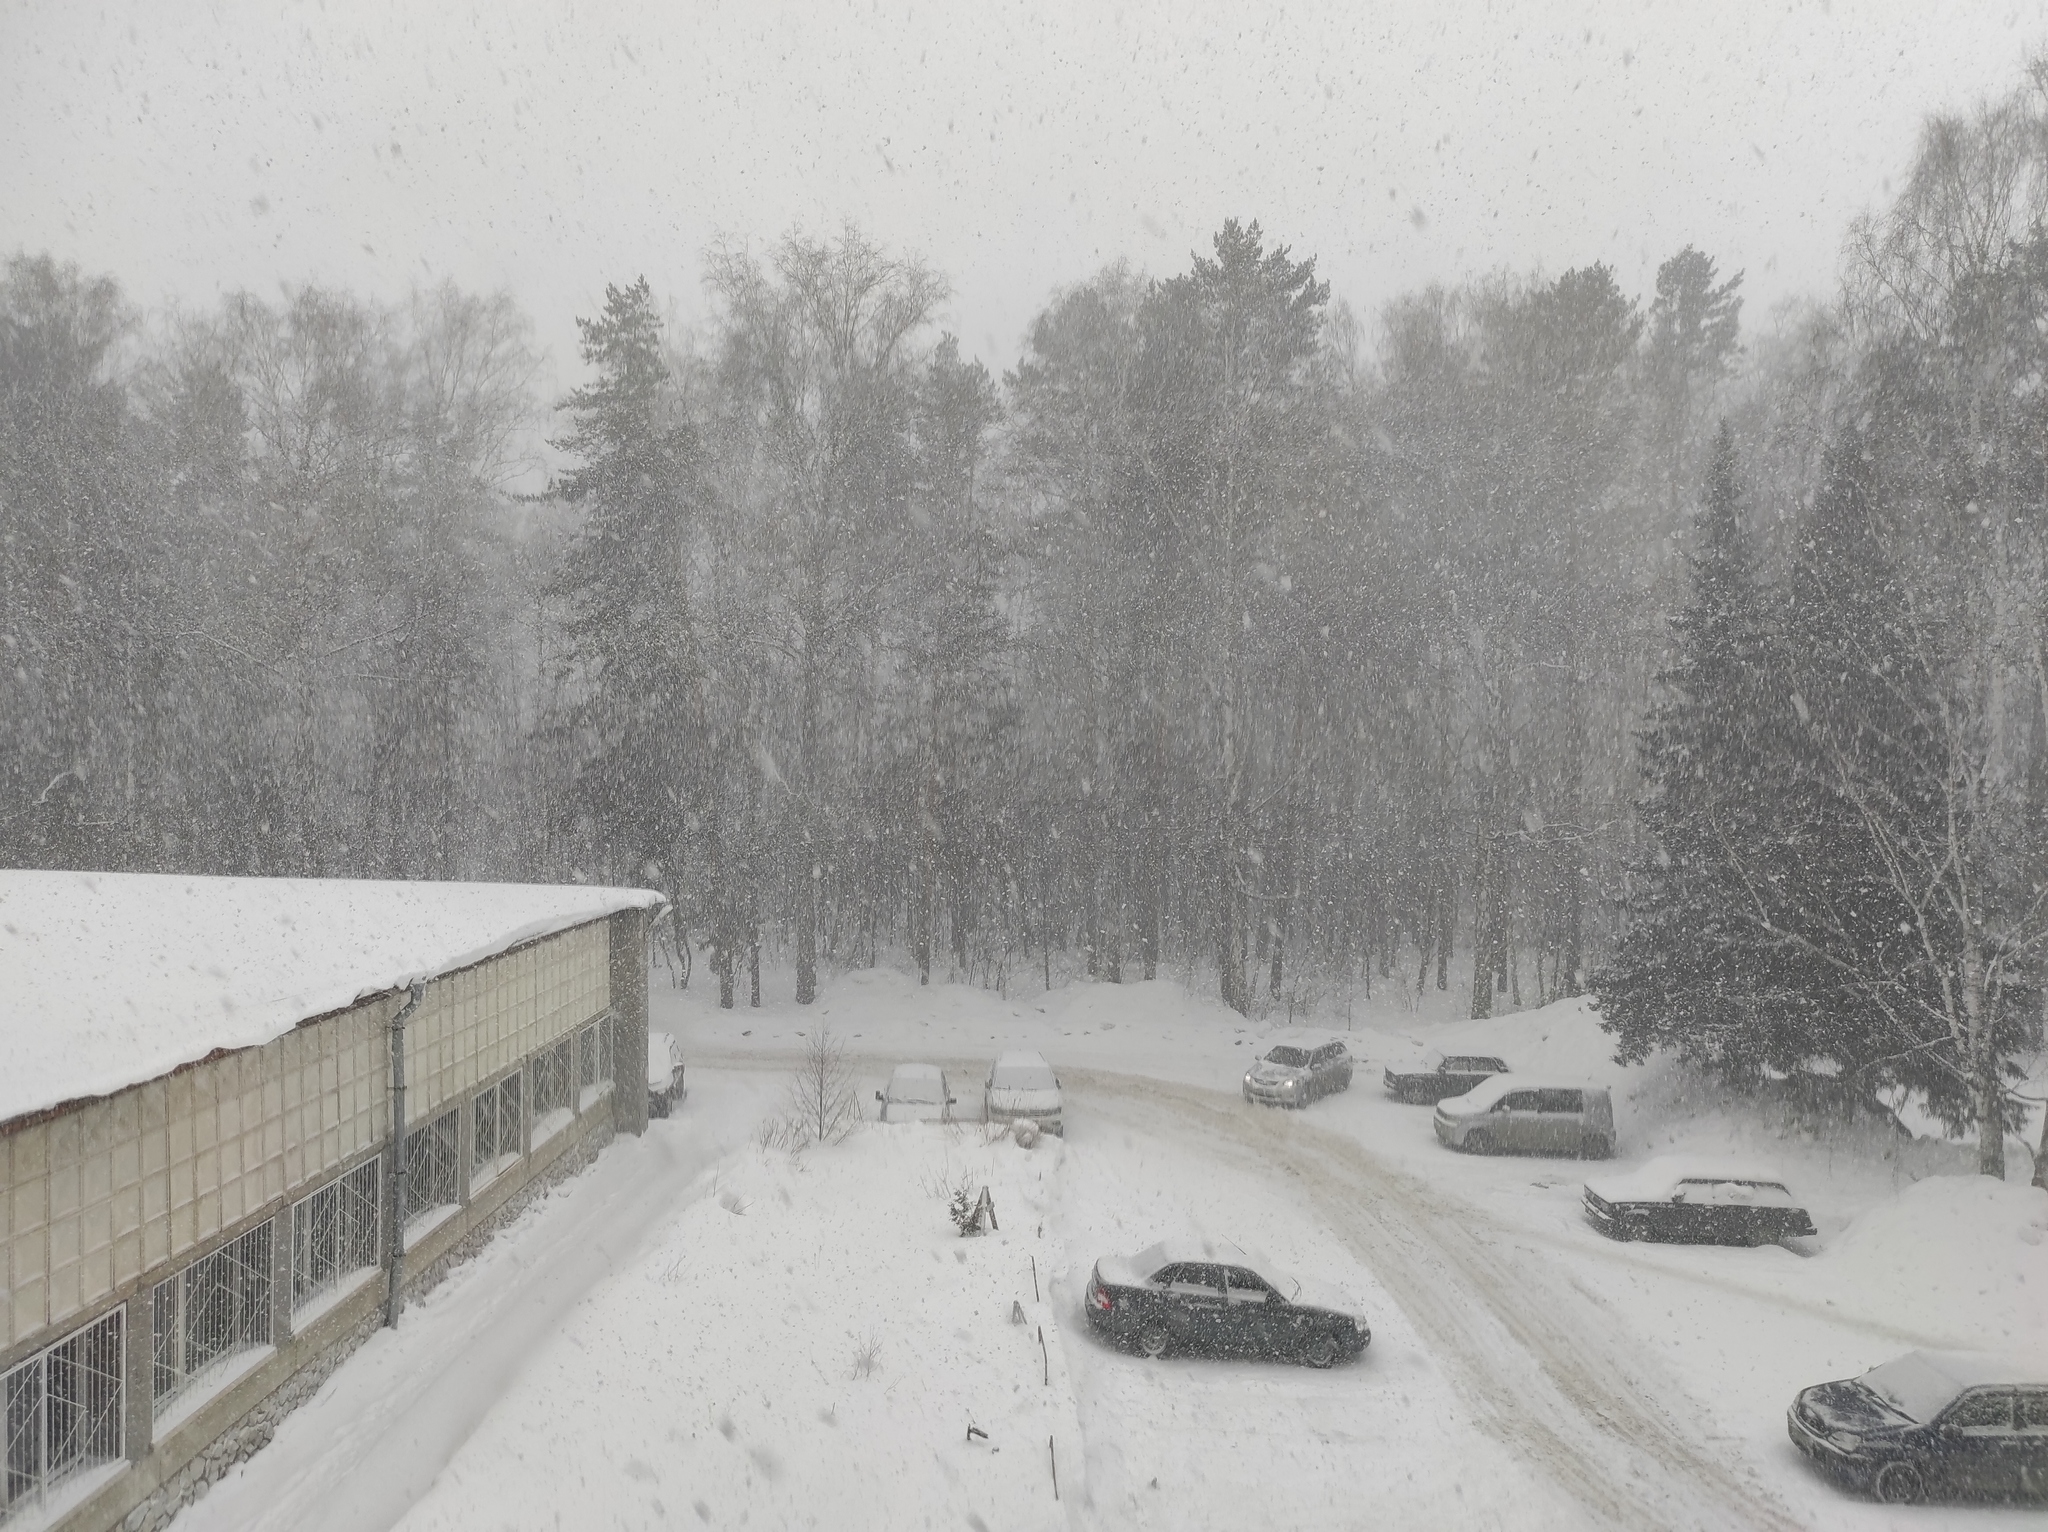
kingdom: Plantae
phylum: Tracheophyta
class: Pinopsida
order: Pinales
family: Pinaceae
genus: Pinus
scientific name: Pinus sylvestris
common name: Scots pine
